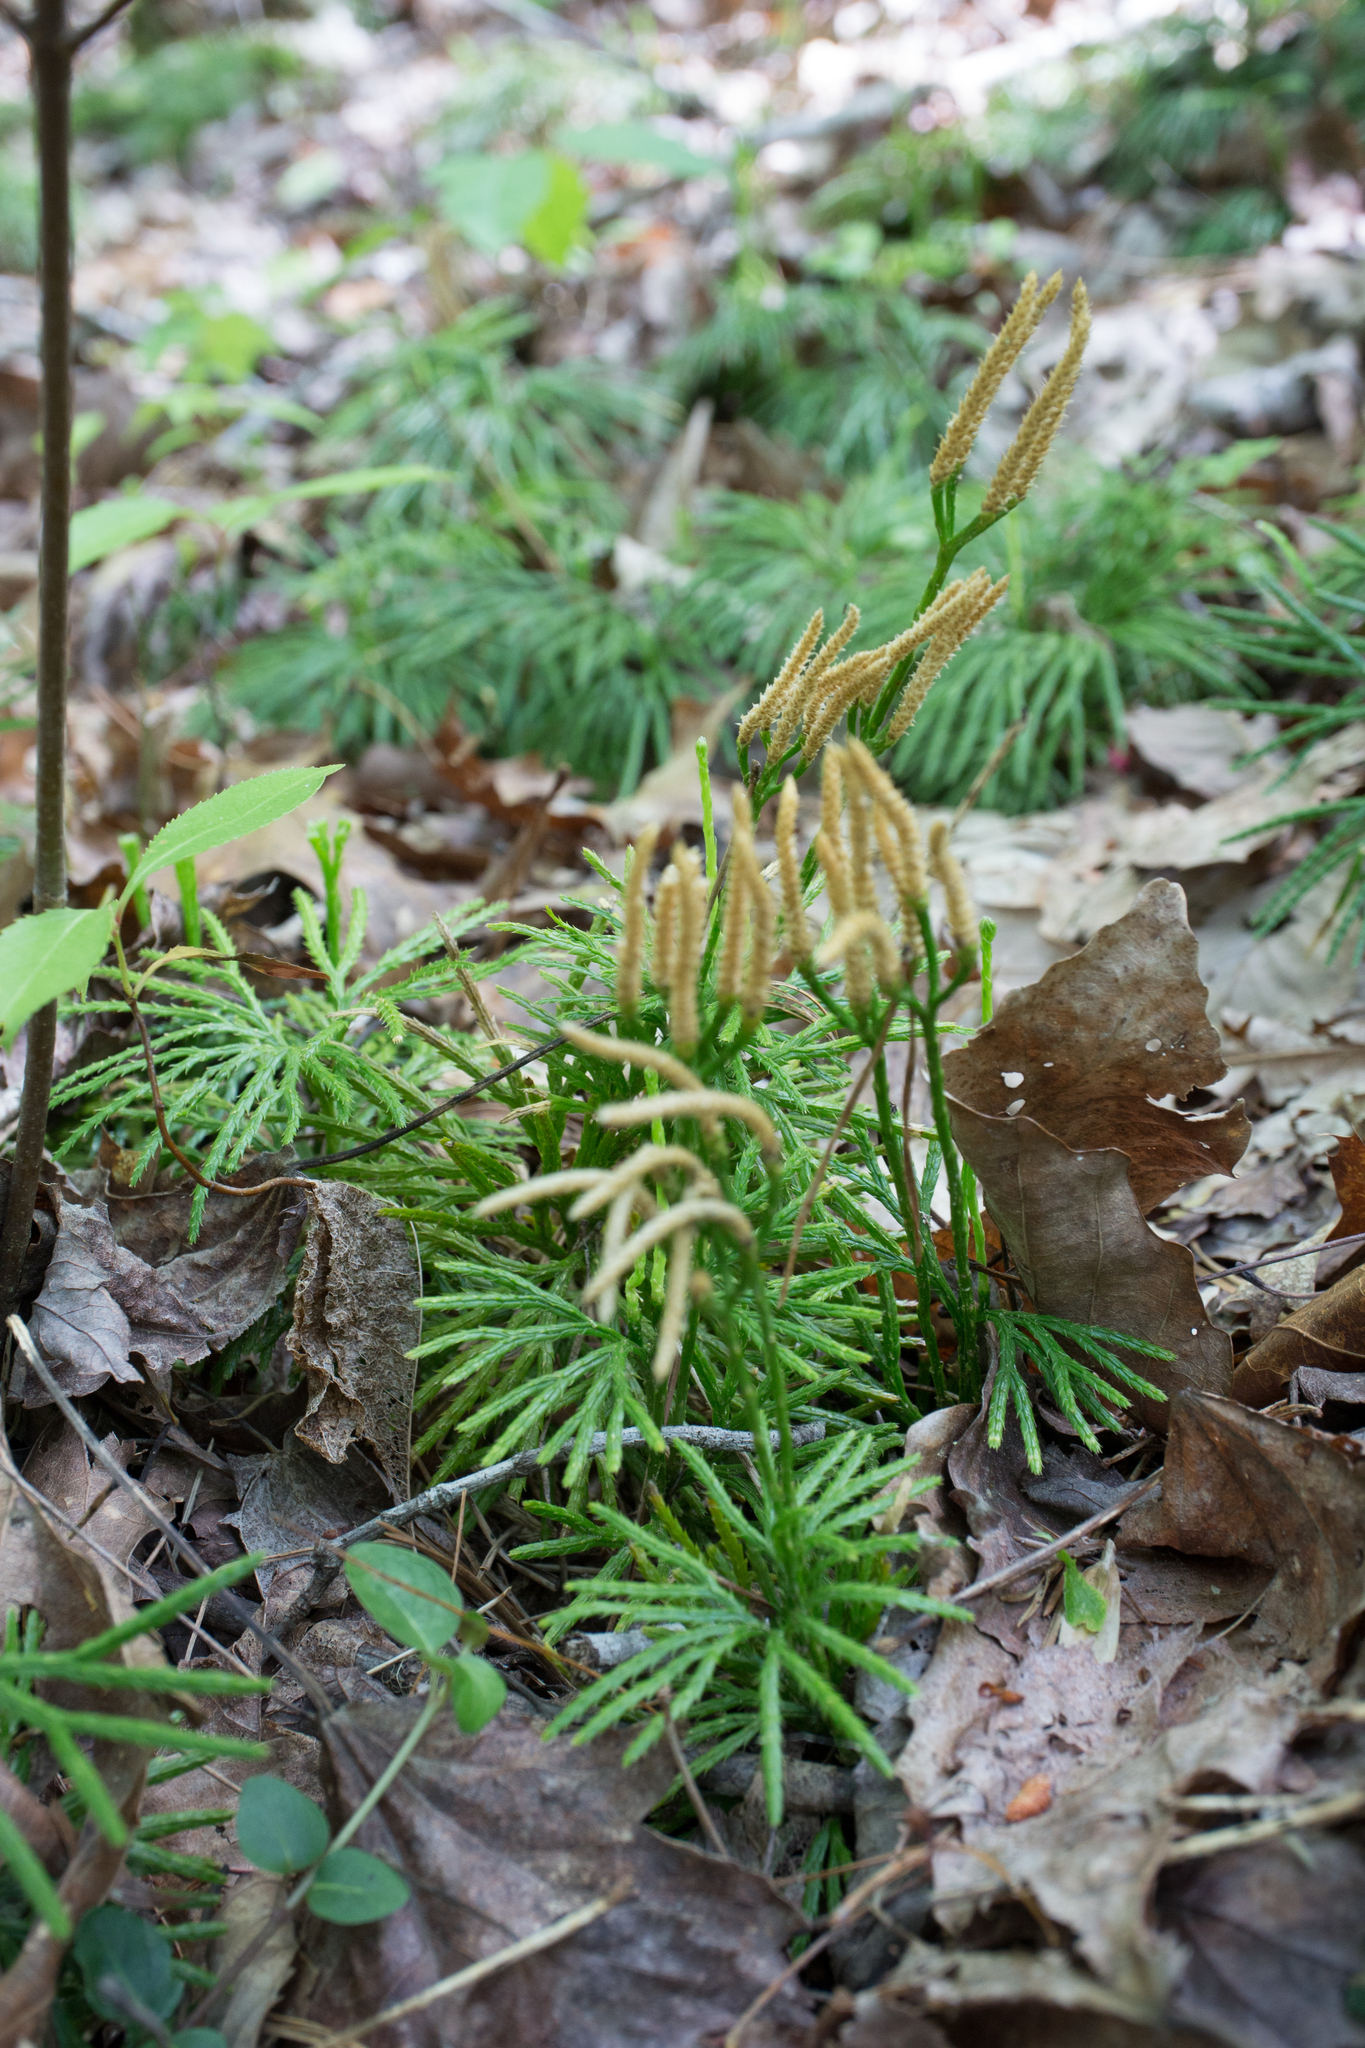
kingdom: Plantae
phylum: Tracheophyta
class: Lycopodiopsida
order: Lycopodiales
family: Lycopodiaceae
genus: Diphasiastrum
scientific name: Diphasiastrum digitatum
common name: Southern running-pine
